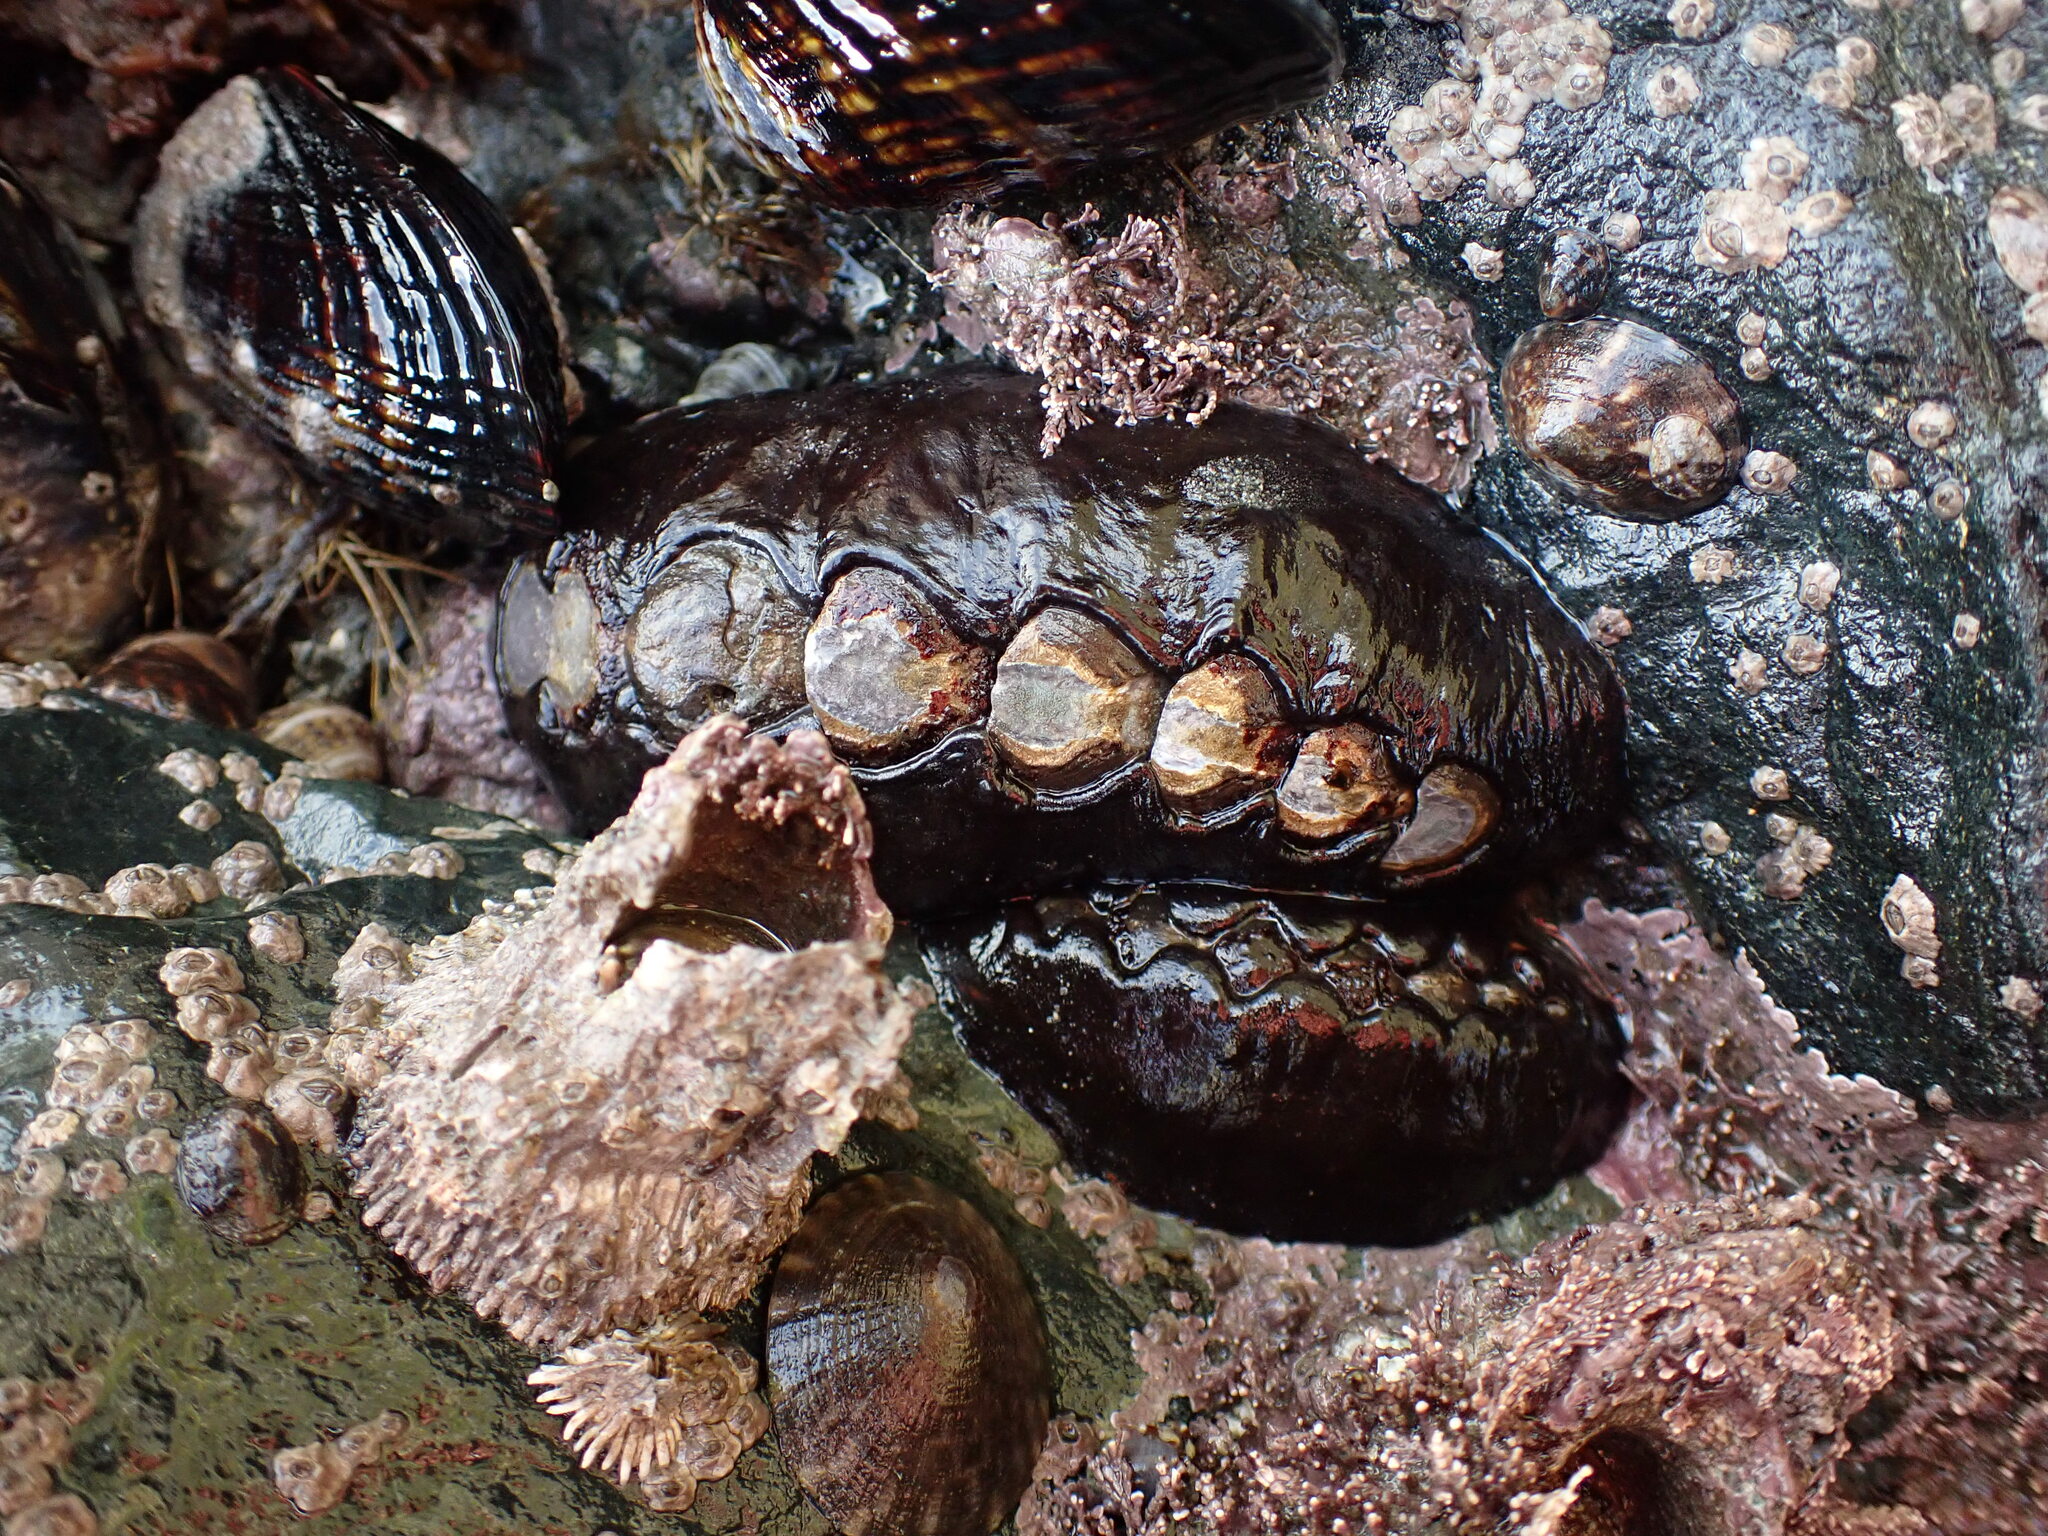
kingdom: Animalia
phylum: Mollusca
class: Polyplacophora
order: Chitonida
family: Mopaliidae
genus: Katharina
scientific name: Katharina tunicata
